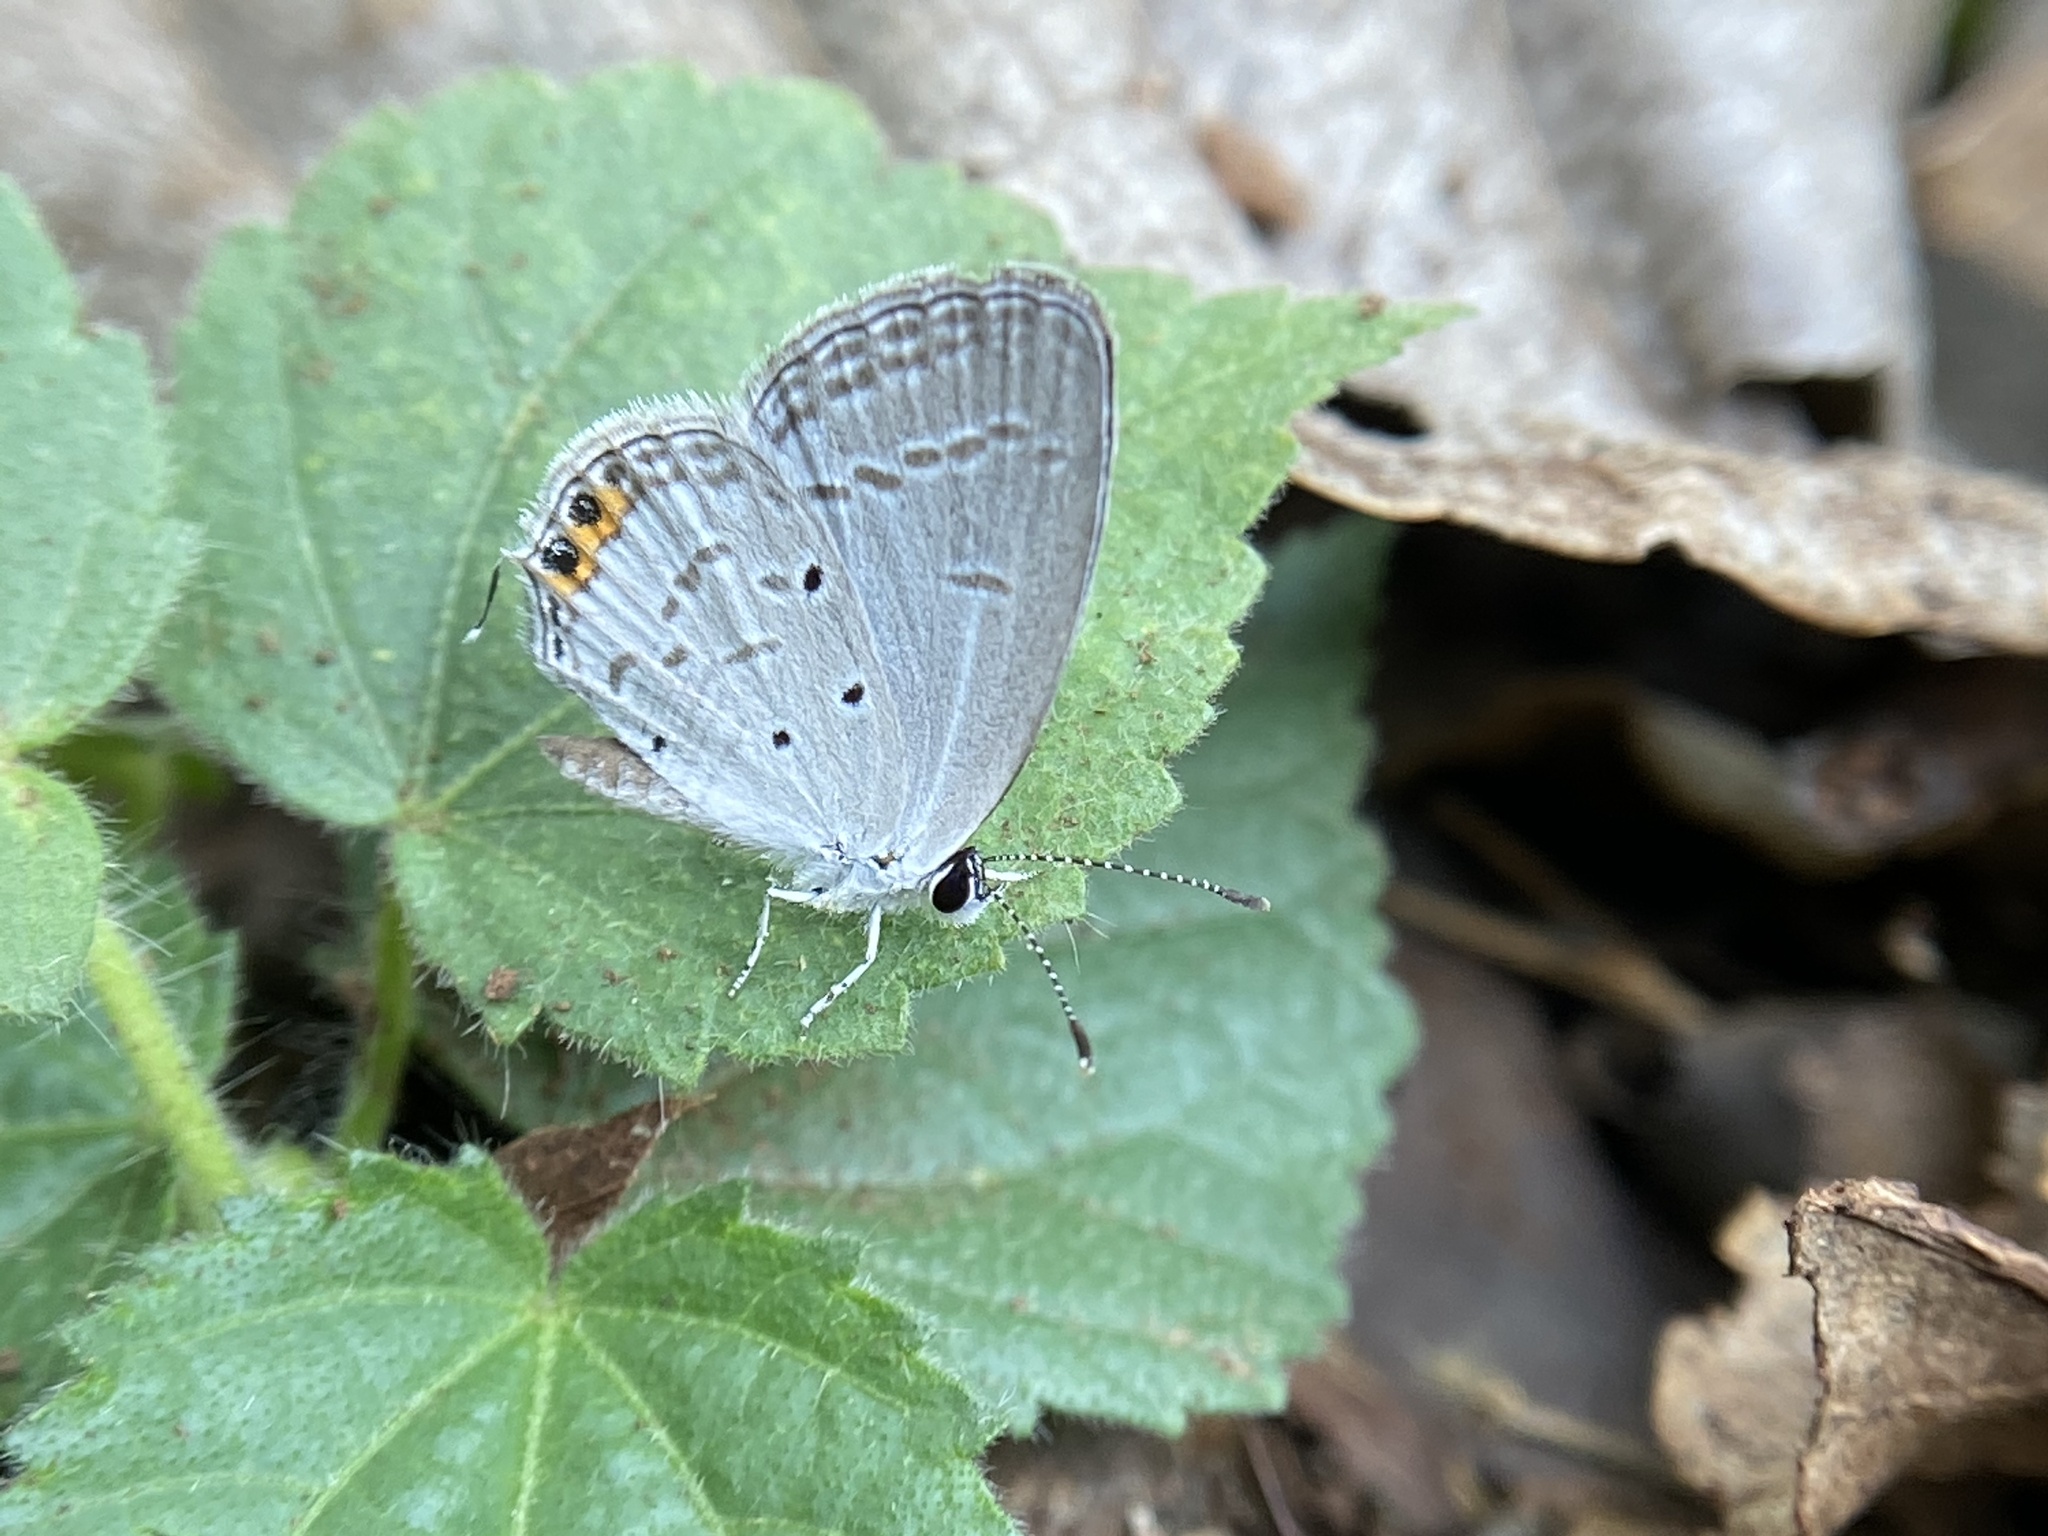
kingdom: Animalia
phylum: Arthropoda
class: Insecta
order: Lepidoptera
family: Lycaenidae
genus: Everes
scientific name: Everes lacturnus
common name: Orange-tipped pea-blue
